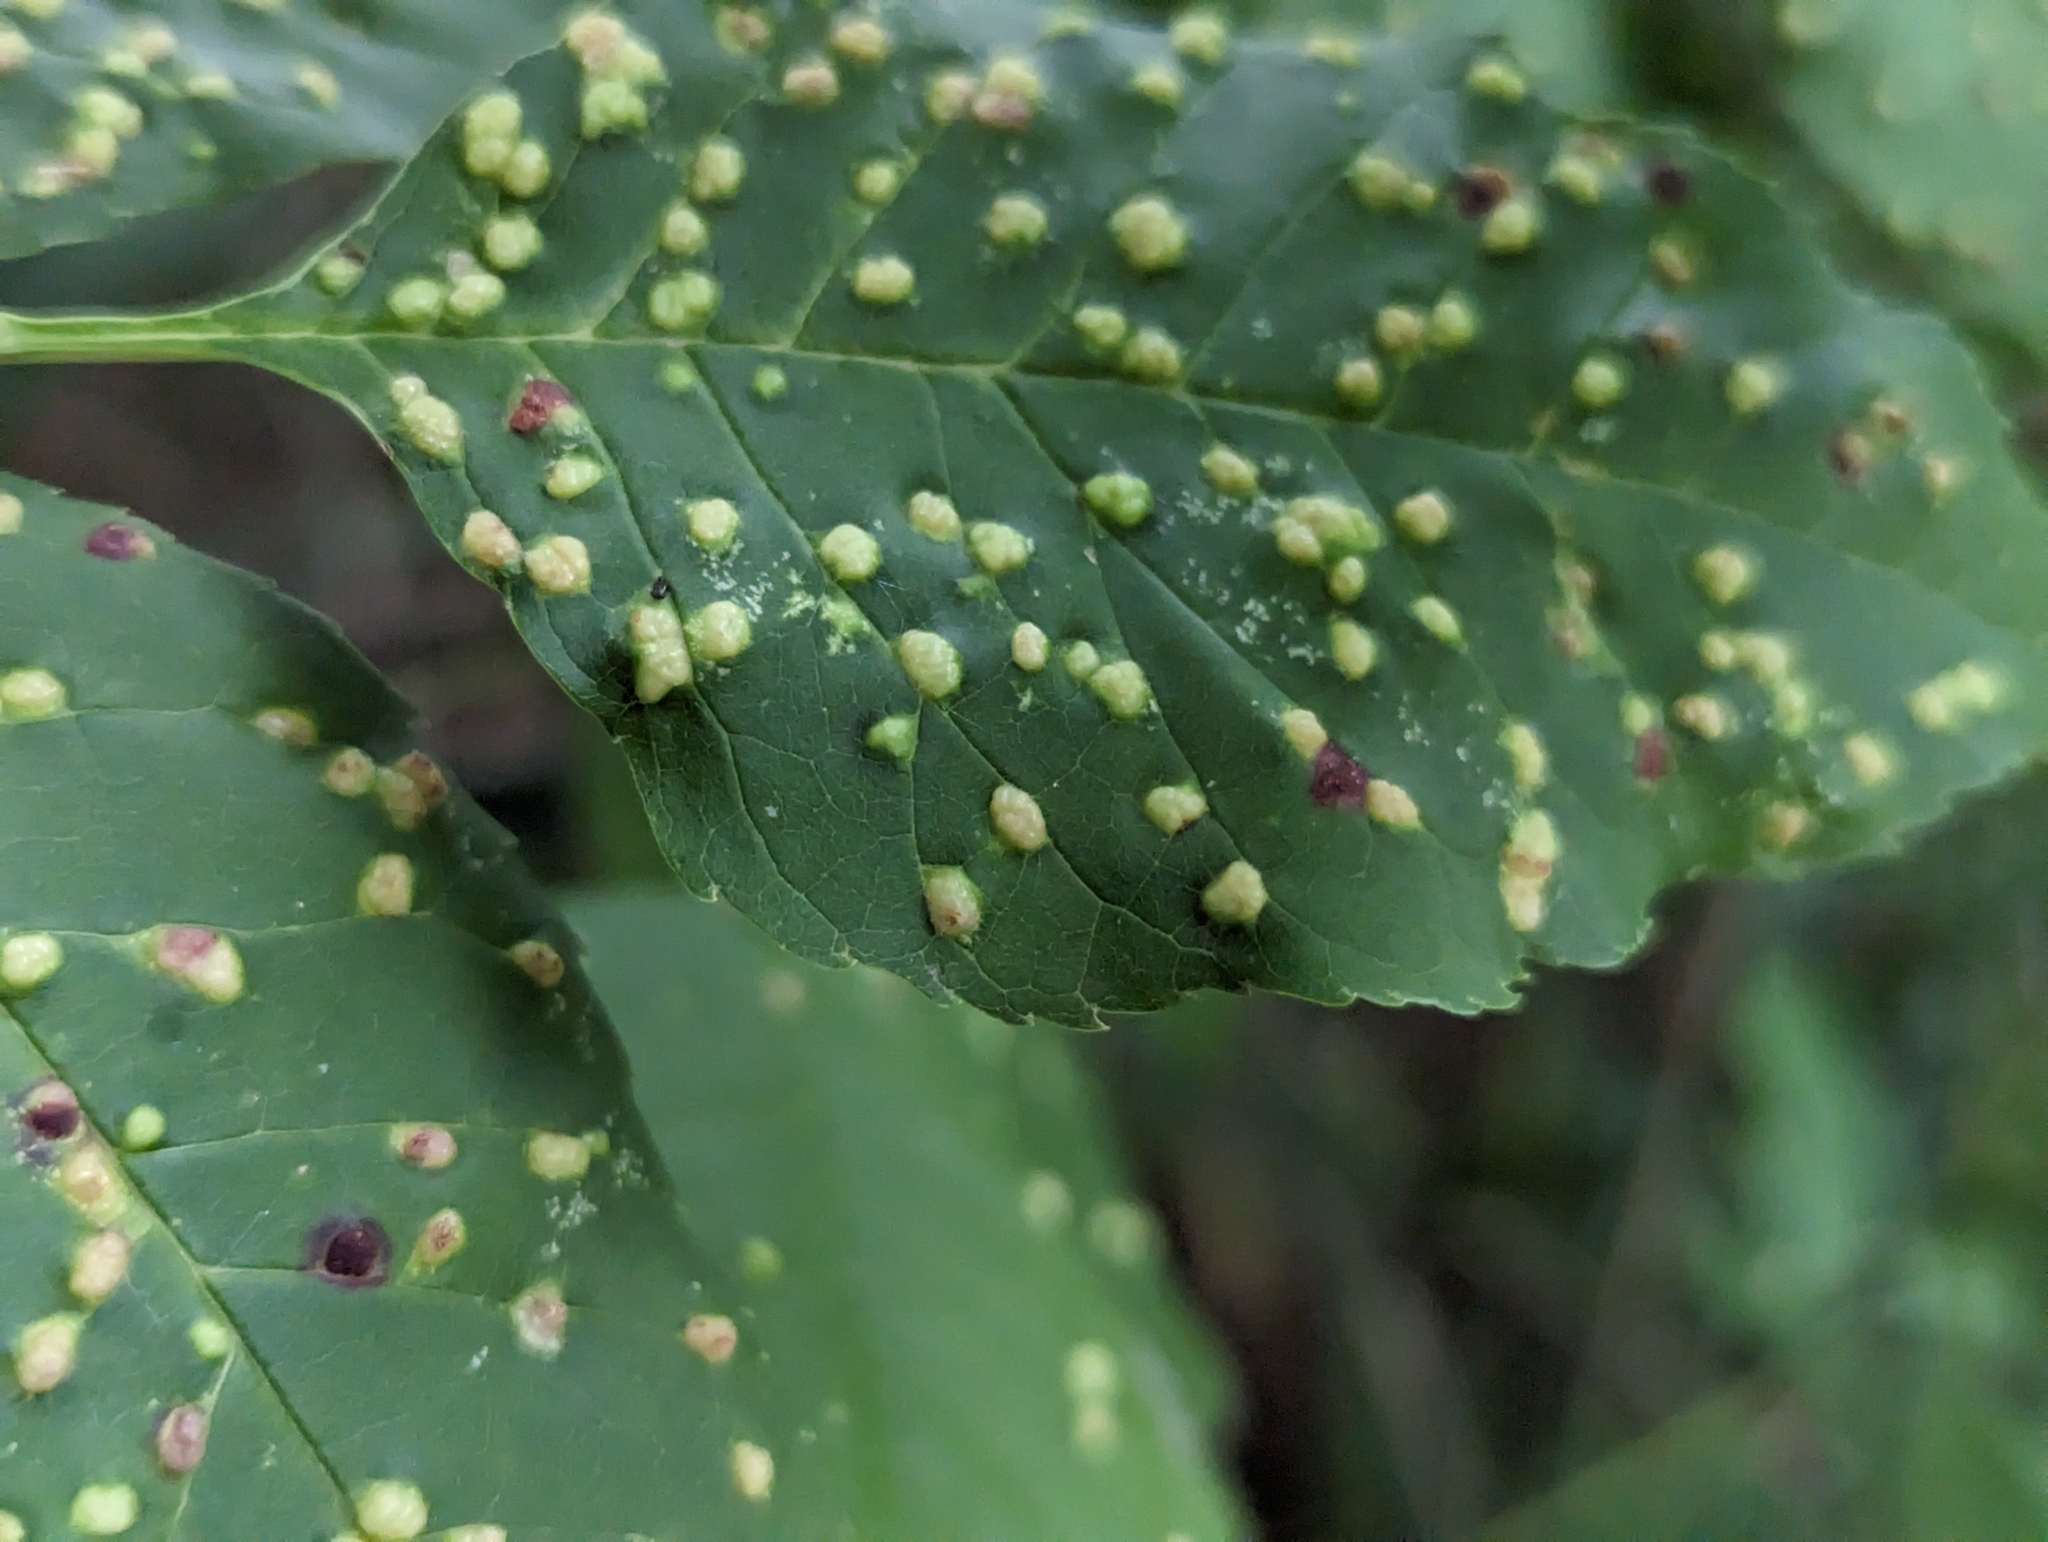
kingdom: Animalia
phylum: Arthropoda
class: Arachnida
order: Trombidiformes
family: Eriophyidae
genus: Aceria
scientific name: Aceria fraxinicola
